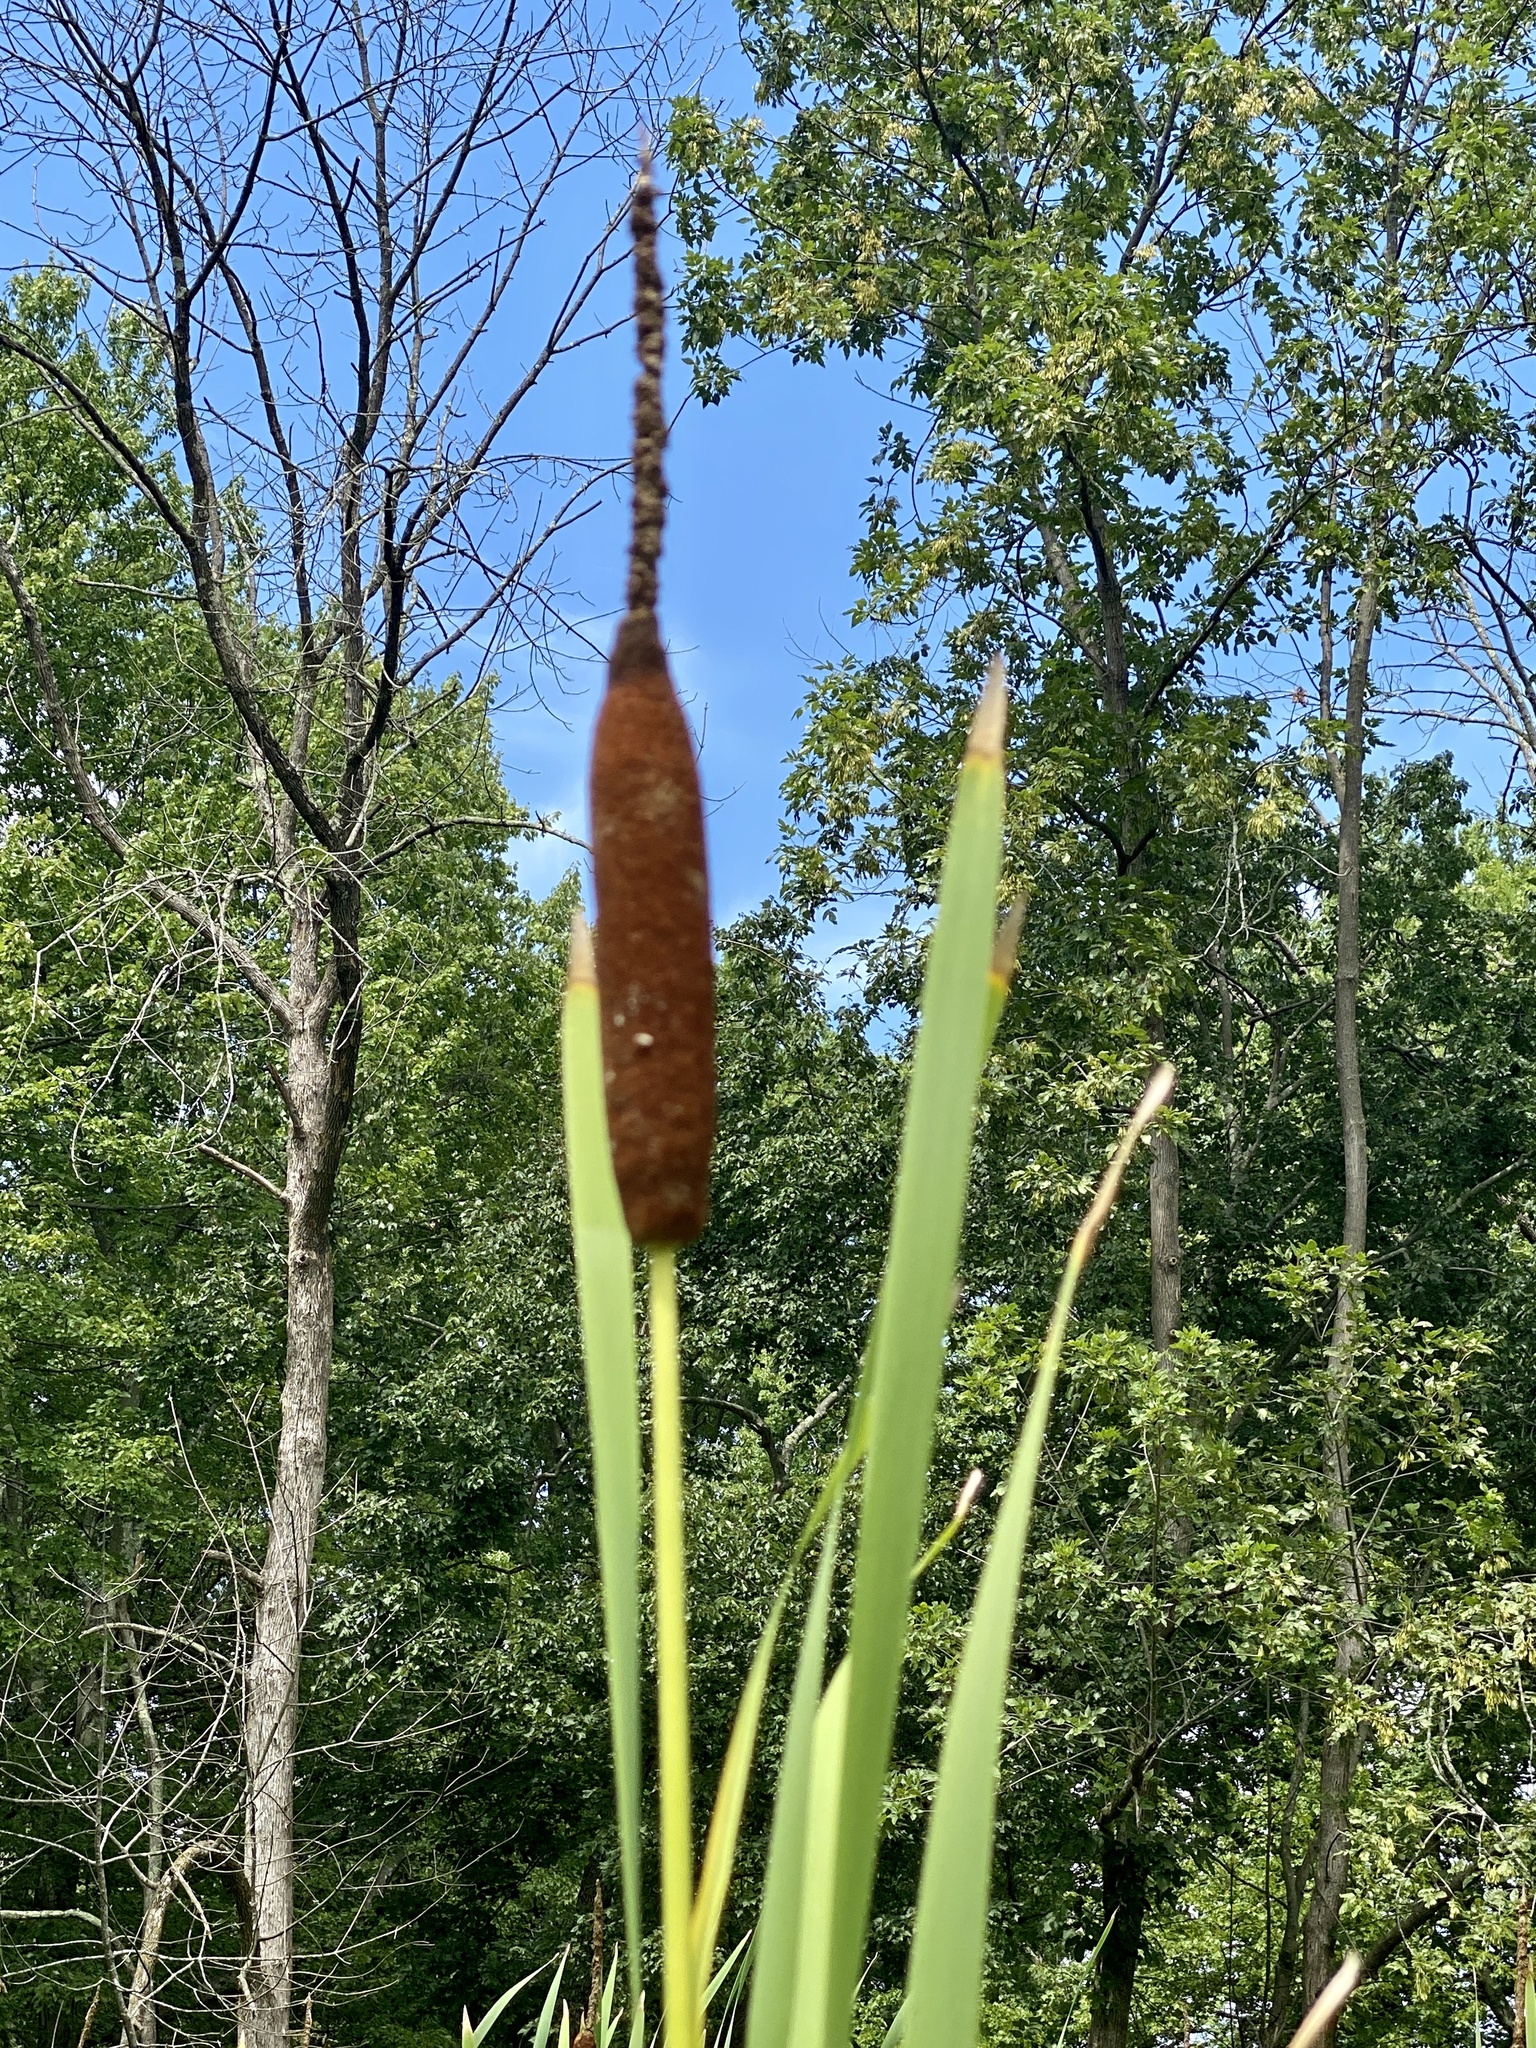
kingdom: Plantae
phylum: Tracheophyta
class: Liliopsida
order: Poales
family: Typhaceae
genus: Typha
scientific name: Typha latifolia
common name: Broadleaf cattail
